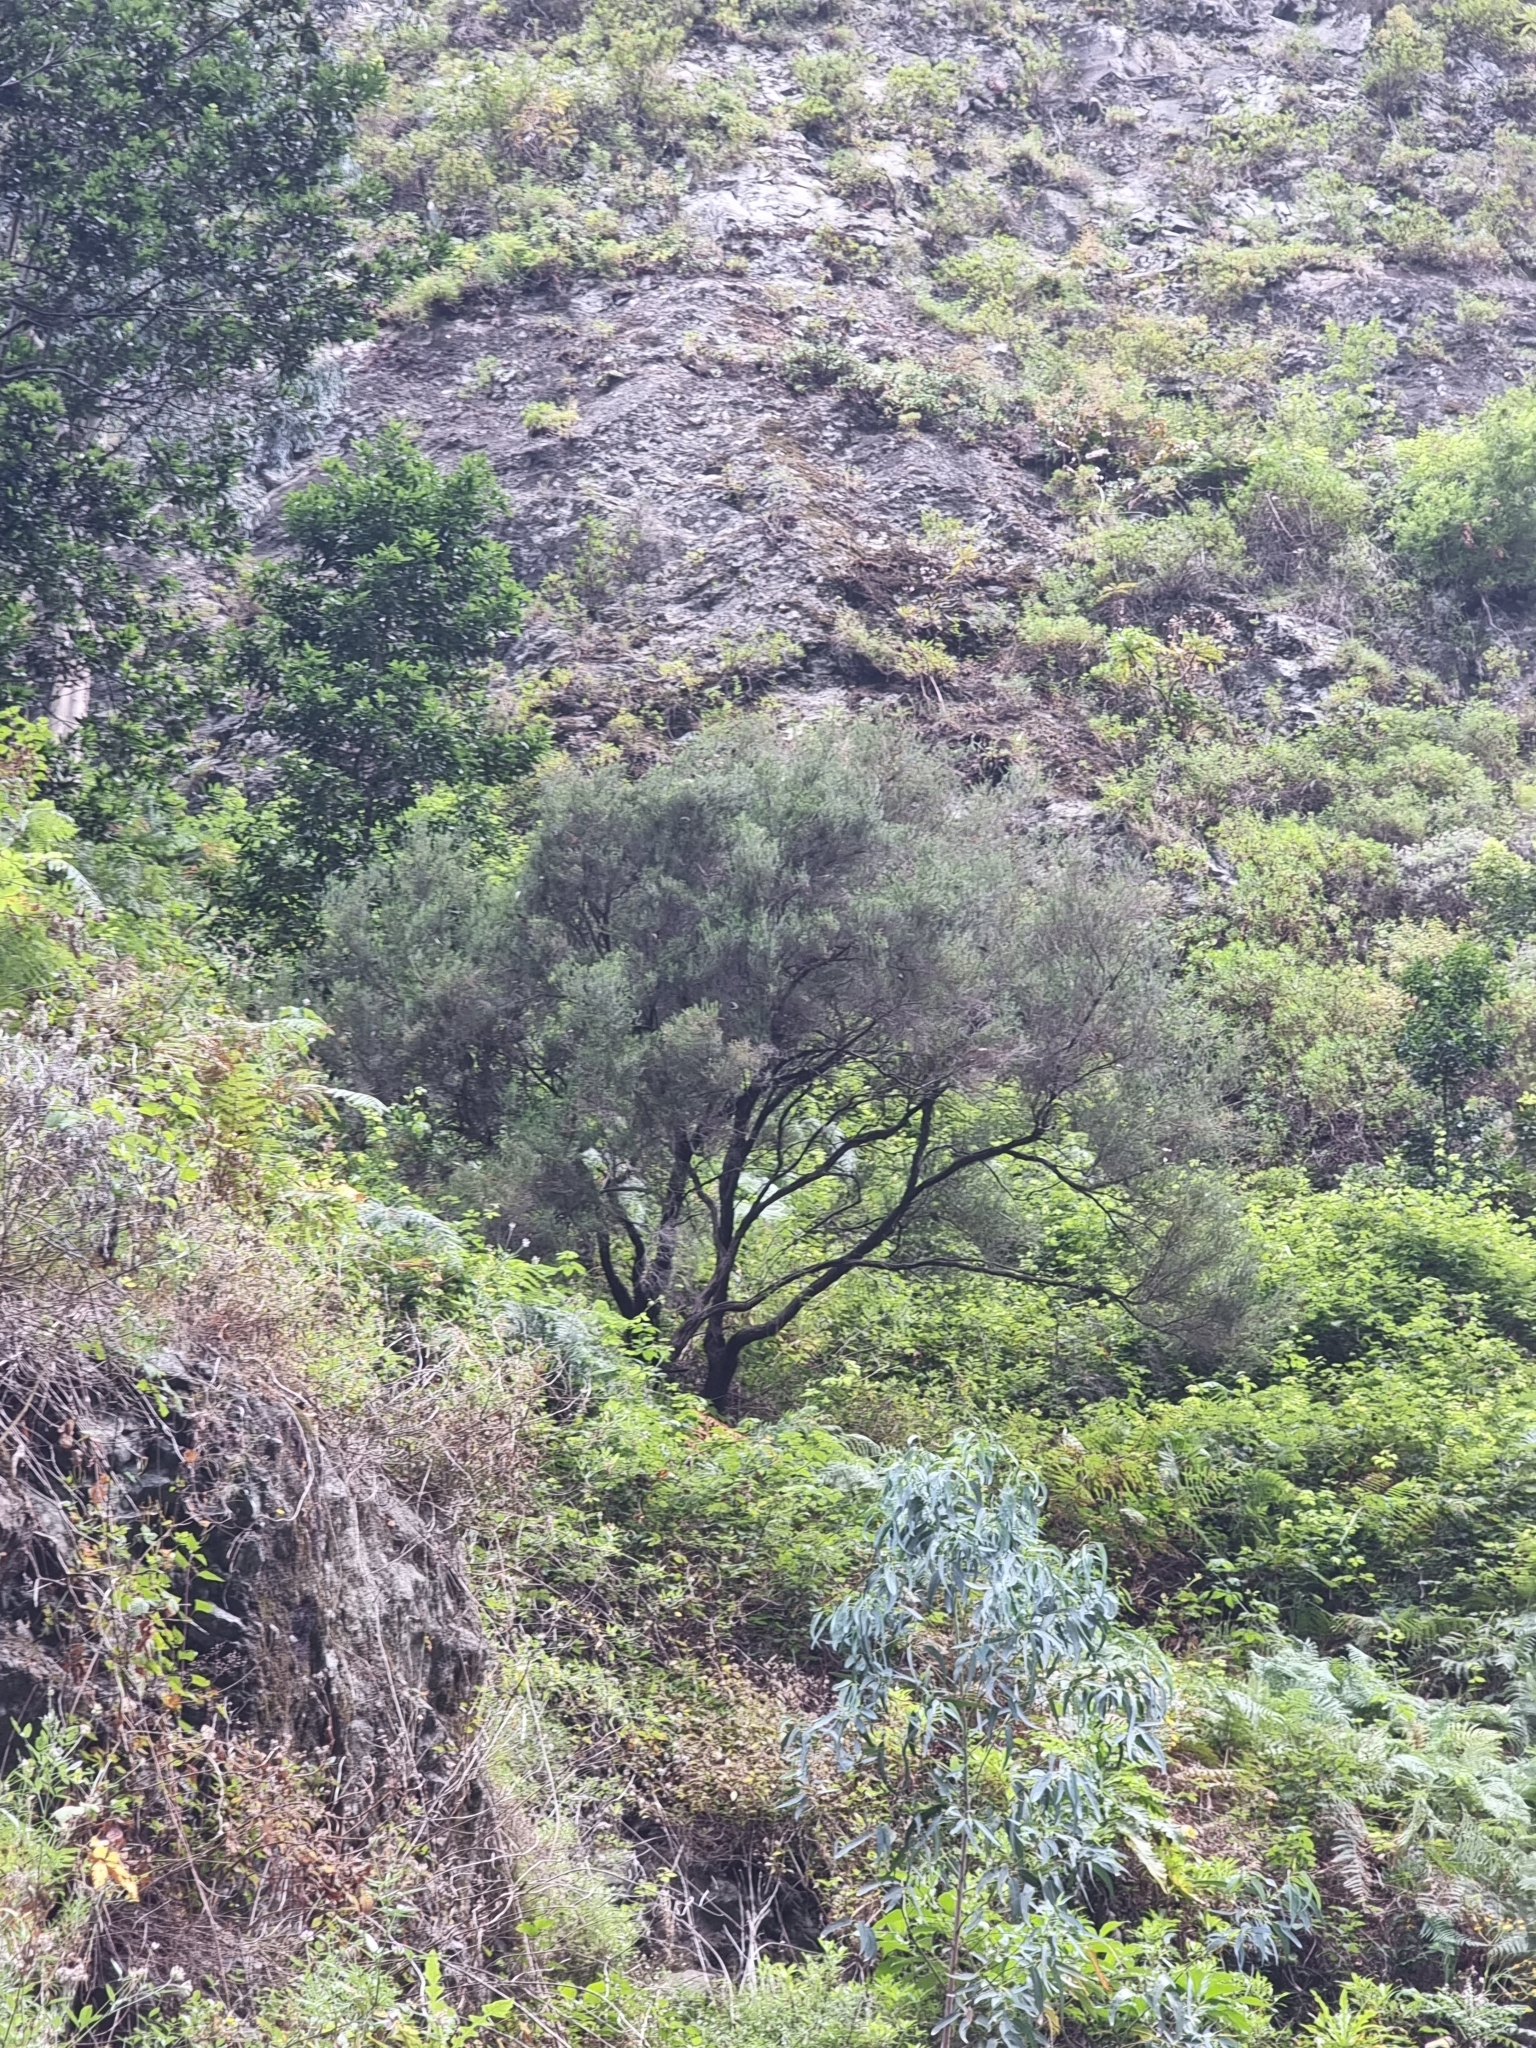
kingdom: Plantae
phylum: Tracheophyta
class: Magnoliopsida
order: Ericales
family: Ericaceae
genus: Erica
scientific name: Erica platycodon
